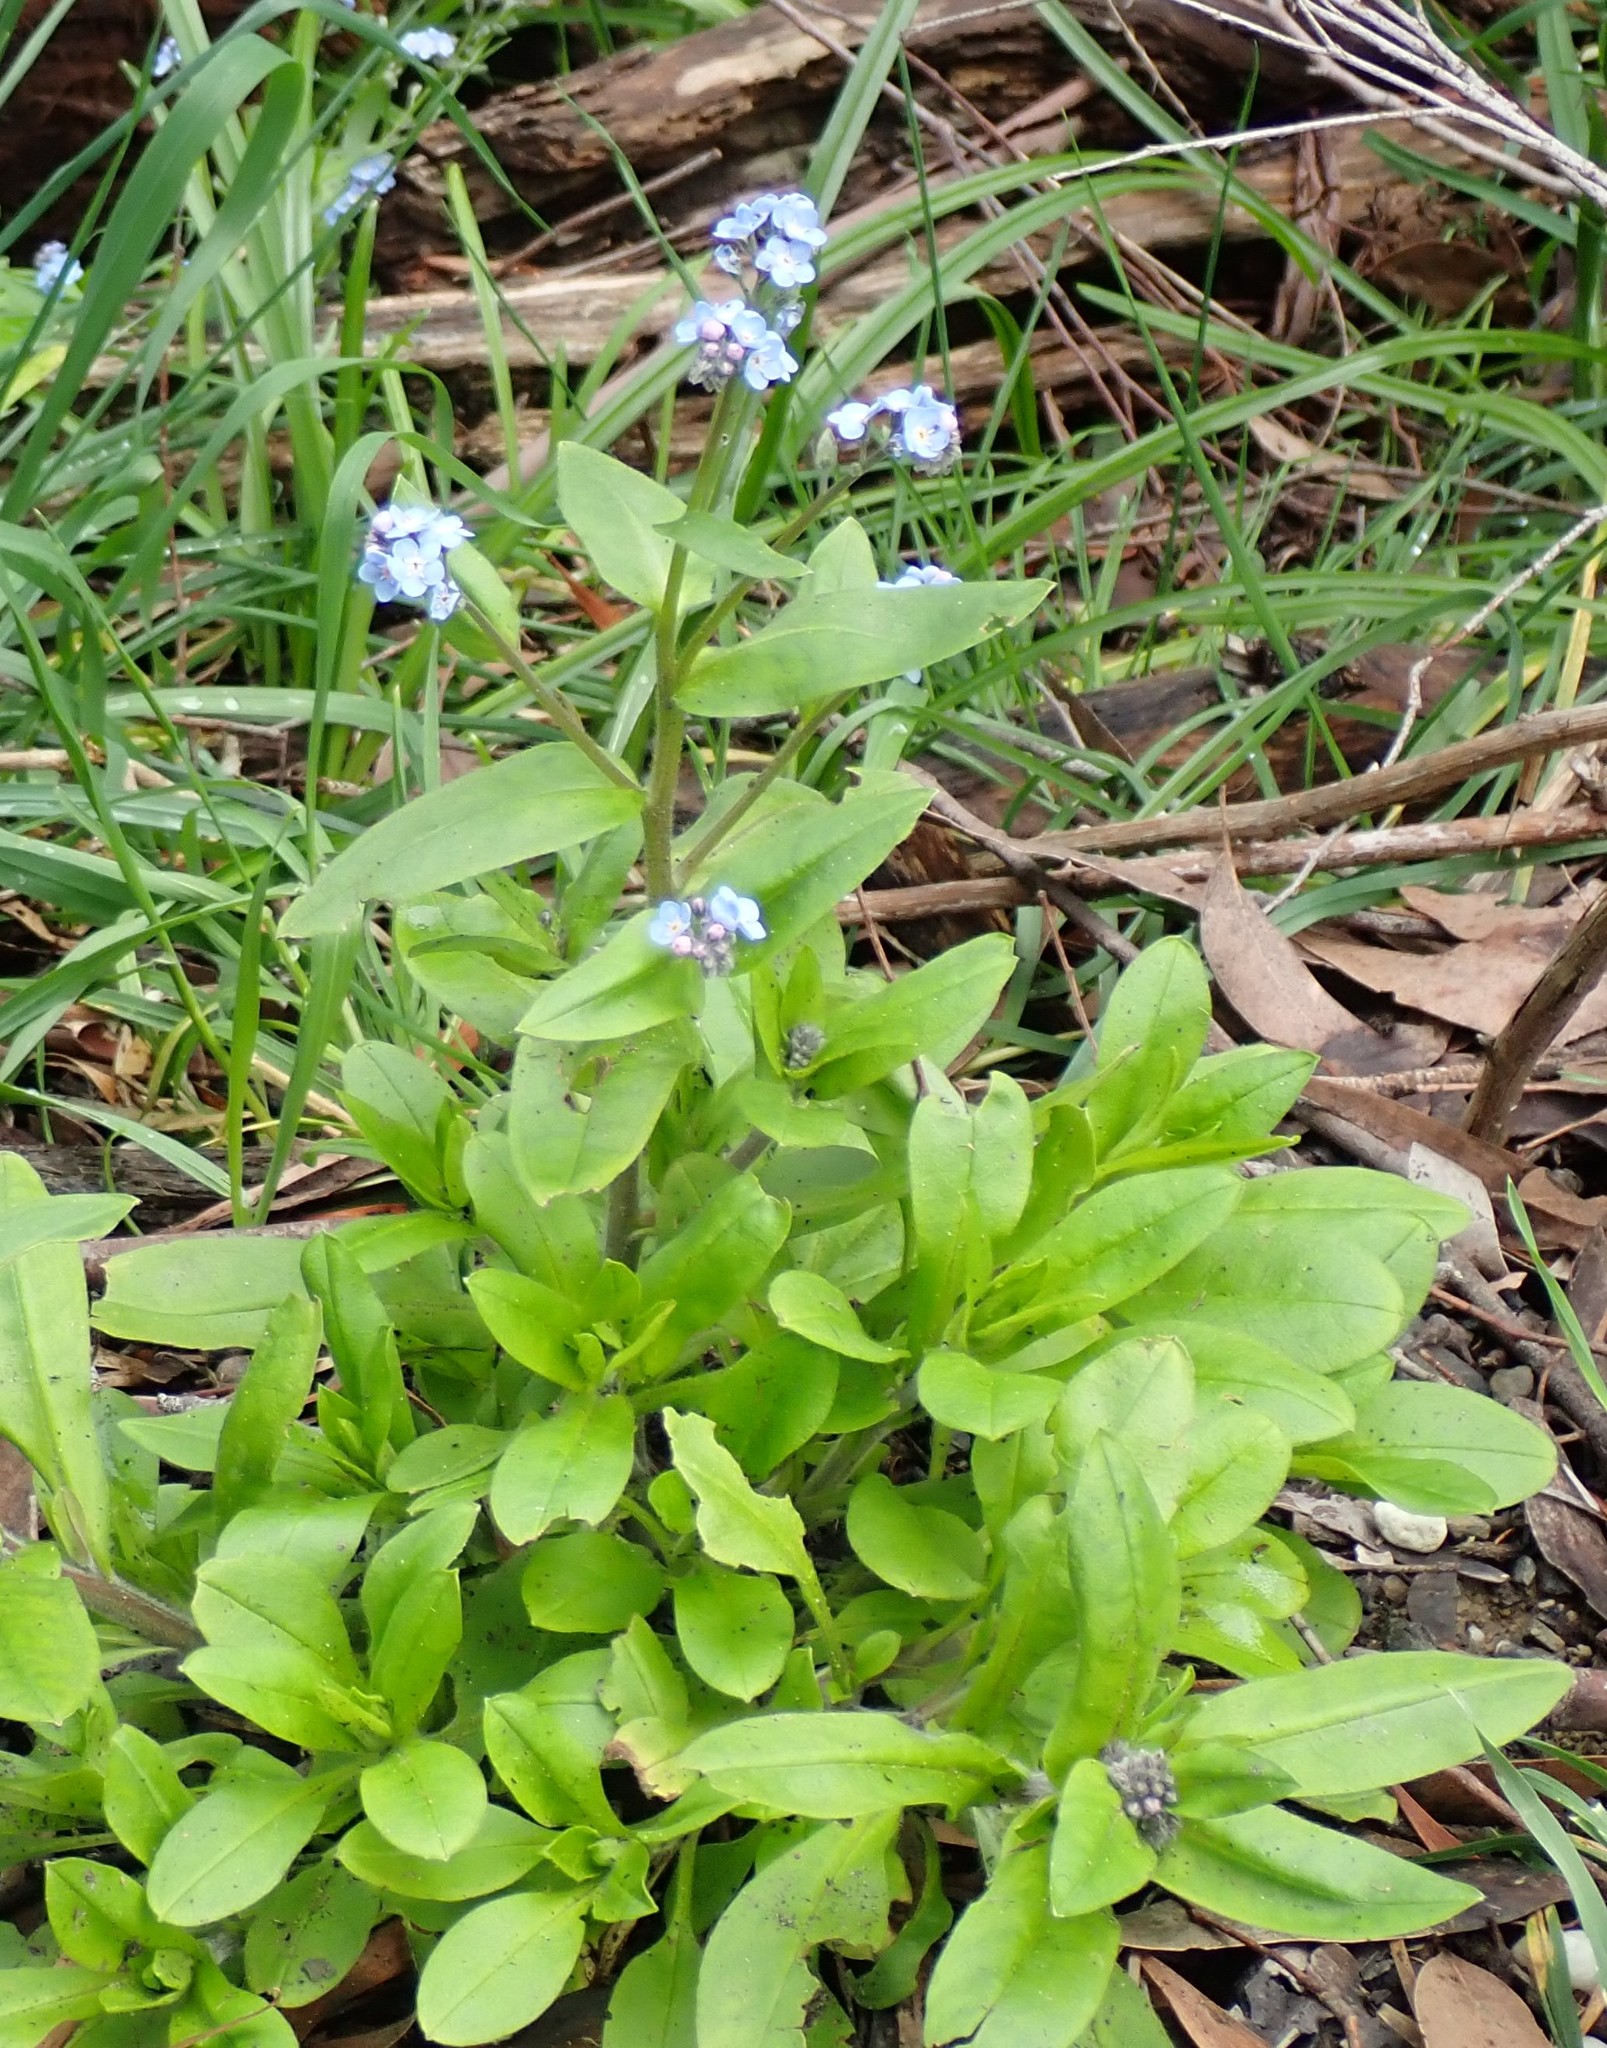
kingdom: Plantae
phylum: Tracheophyta
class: Magnoliopsida
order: Boraginales
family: Boraginaceae
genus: Myosotis
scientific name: Myosotis sylvatica
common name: Wood forget-me-not
